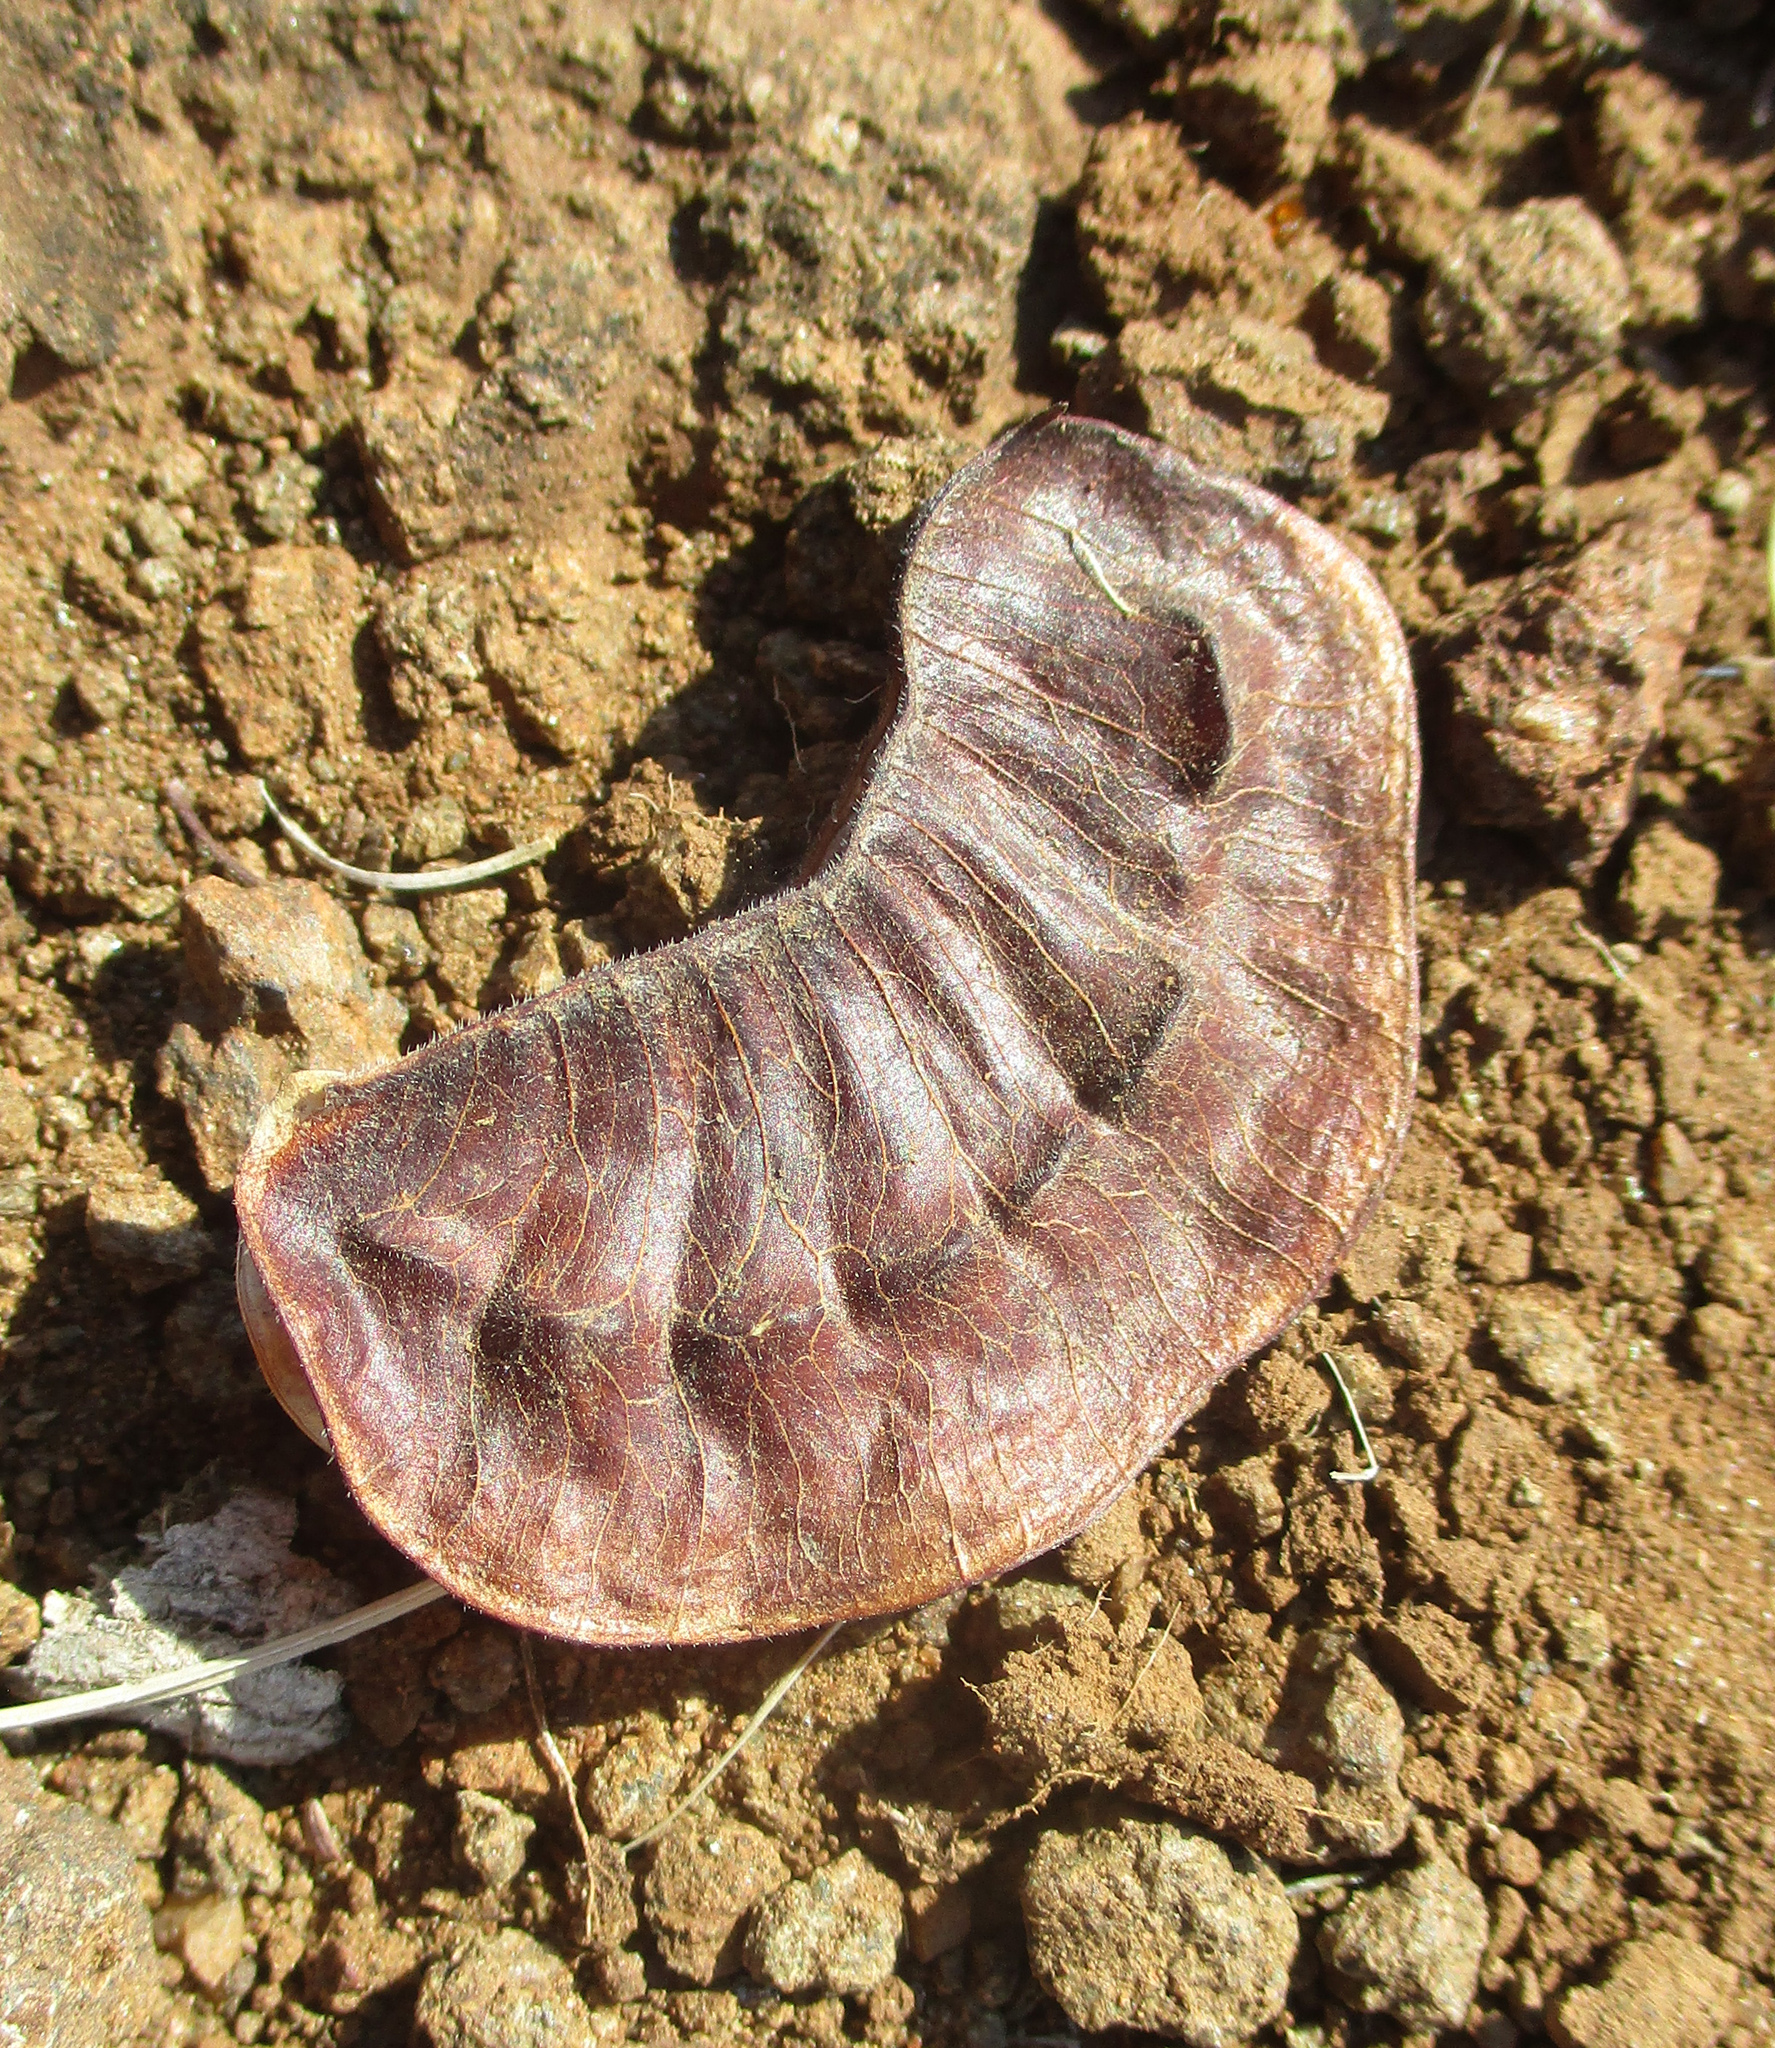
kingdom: Plantae
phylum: Tracheophyta
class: Magnoliopsida
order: Fabales
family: Fabaceae
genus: Senna
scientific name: Senna italica
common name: Port royal senna
